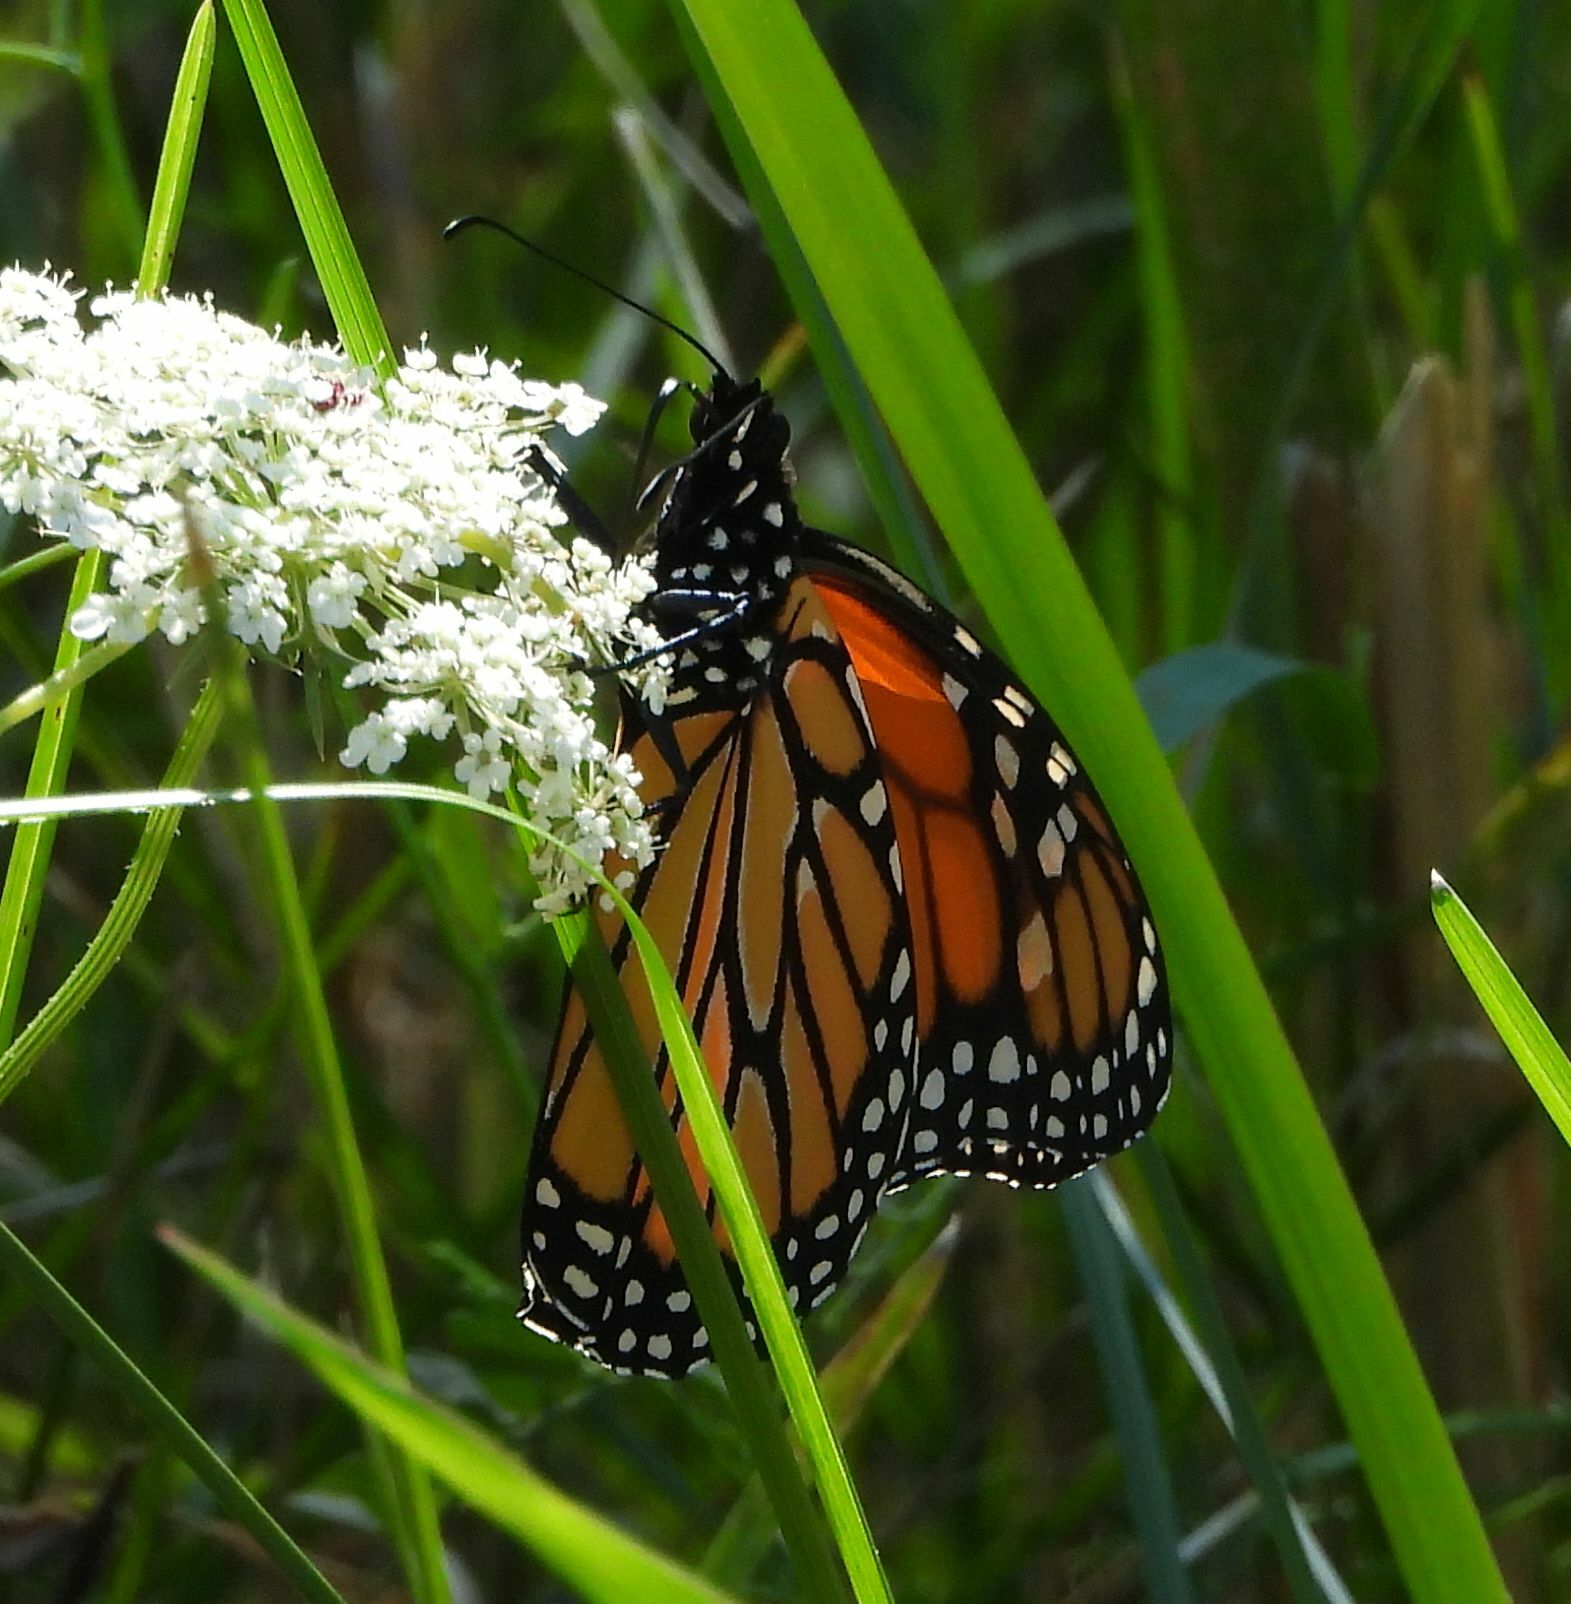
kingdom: Animalia
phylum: Arthropoda
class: Insecta
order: Lepidoptera
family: Nymphalidae
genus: Danaus
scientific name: Danaus plexippus
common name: Monarch
